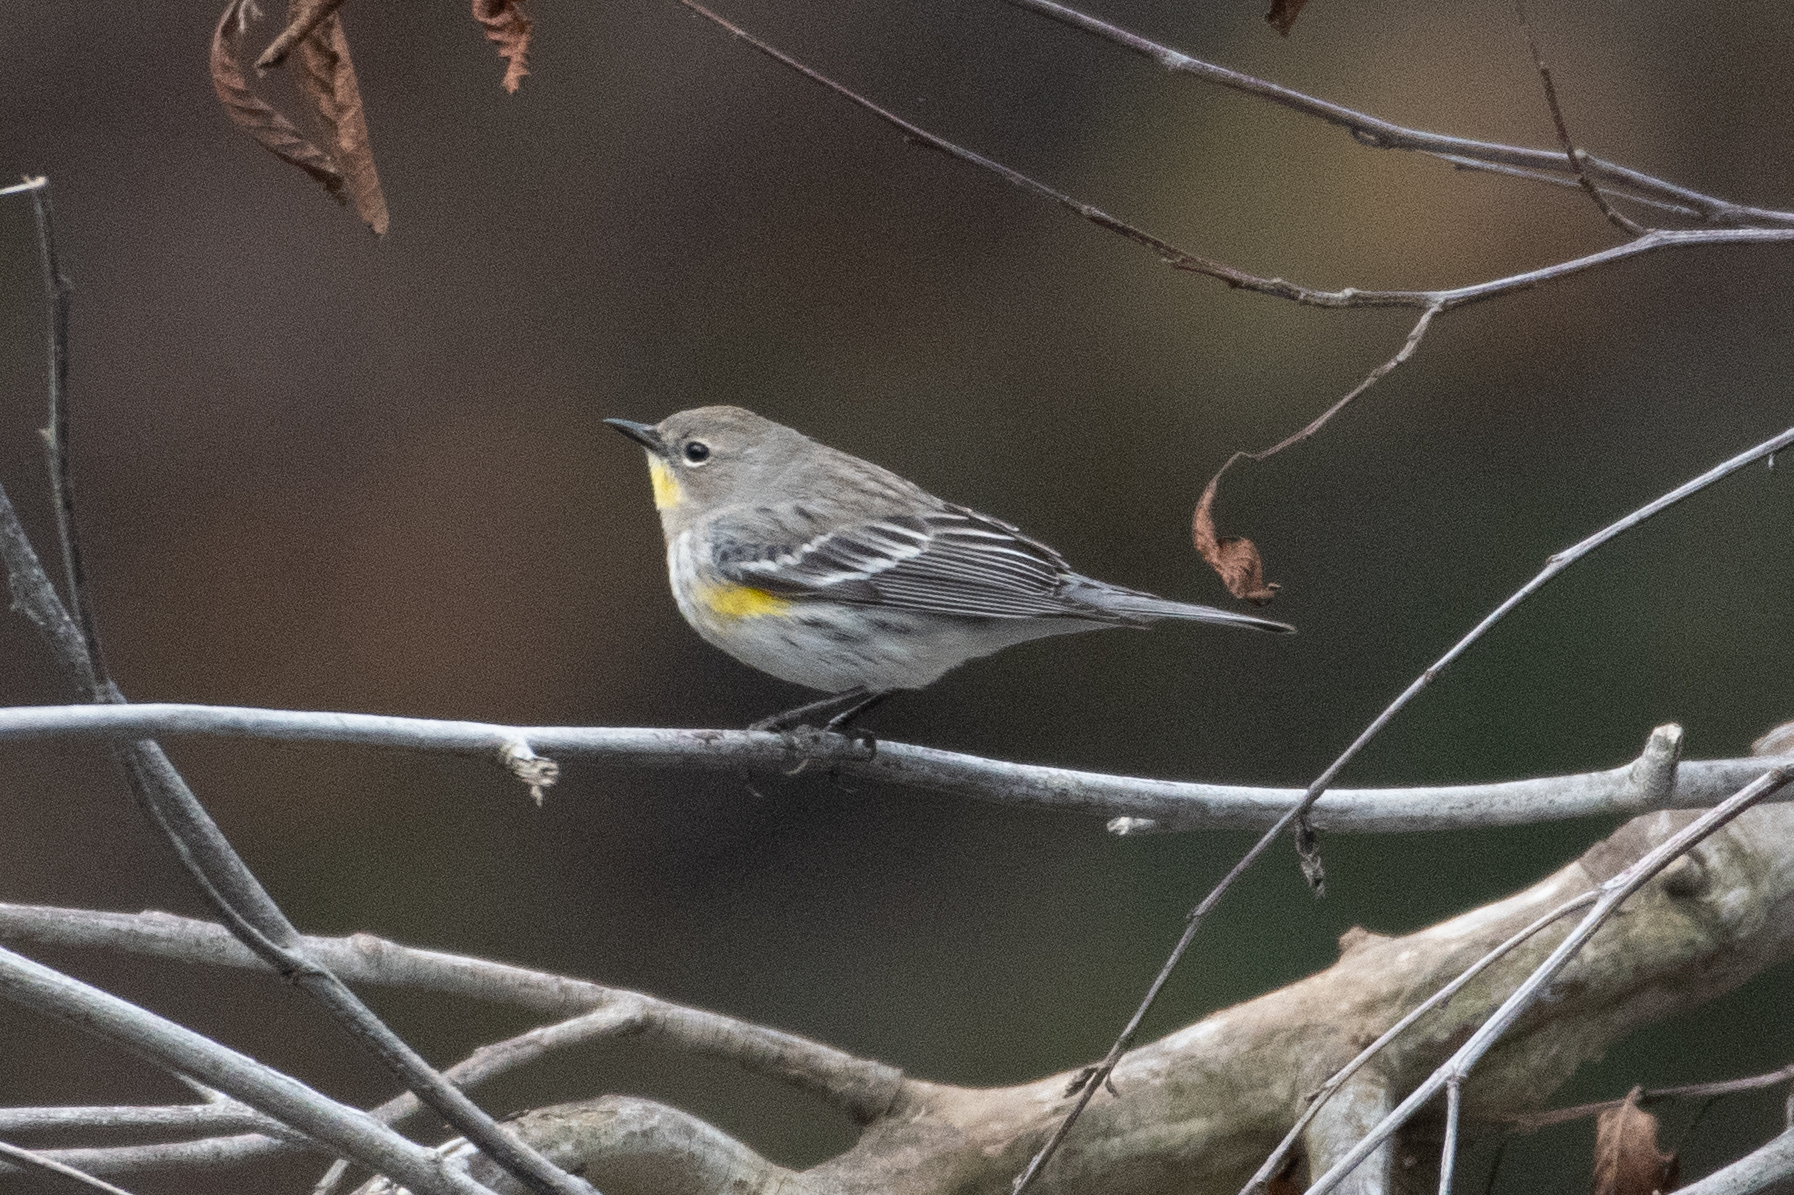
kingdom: Animalia
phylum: Chordata
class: Aves
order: Passeriformes
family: Parulidae
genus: Setophaga
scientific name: Setophaga coronata
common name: Myrtle warbler
